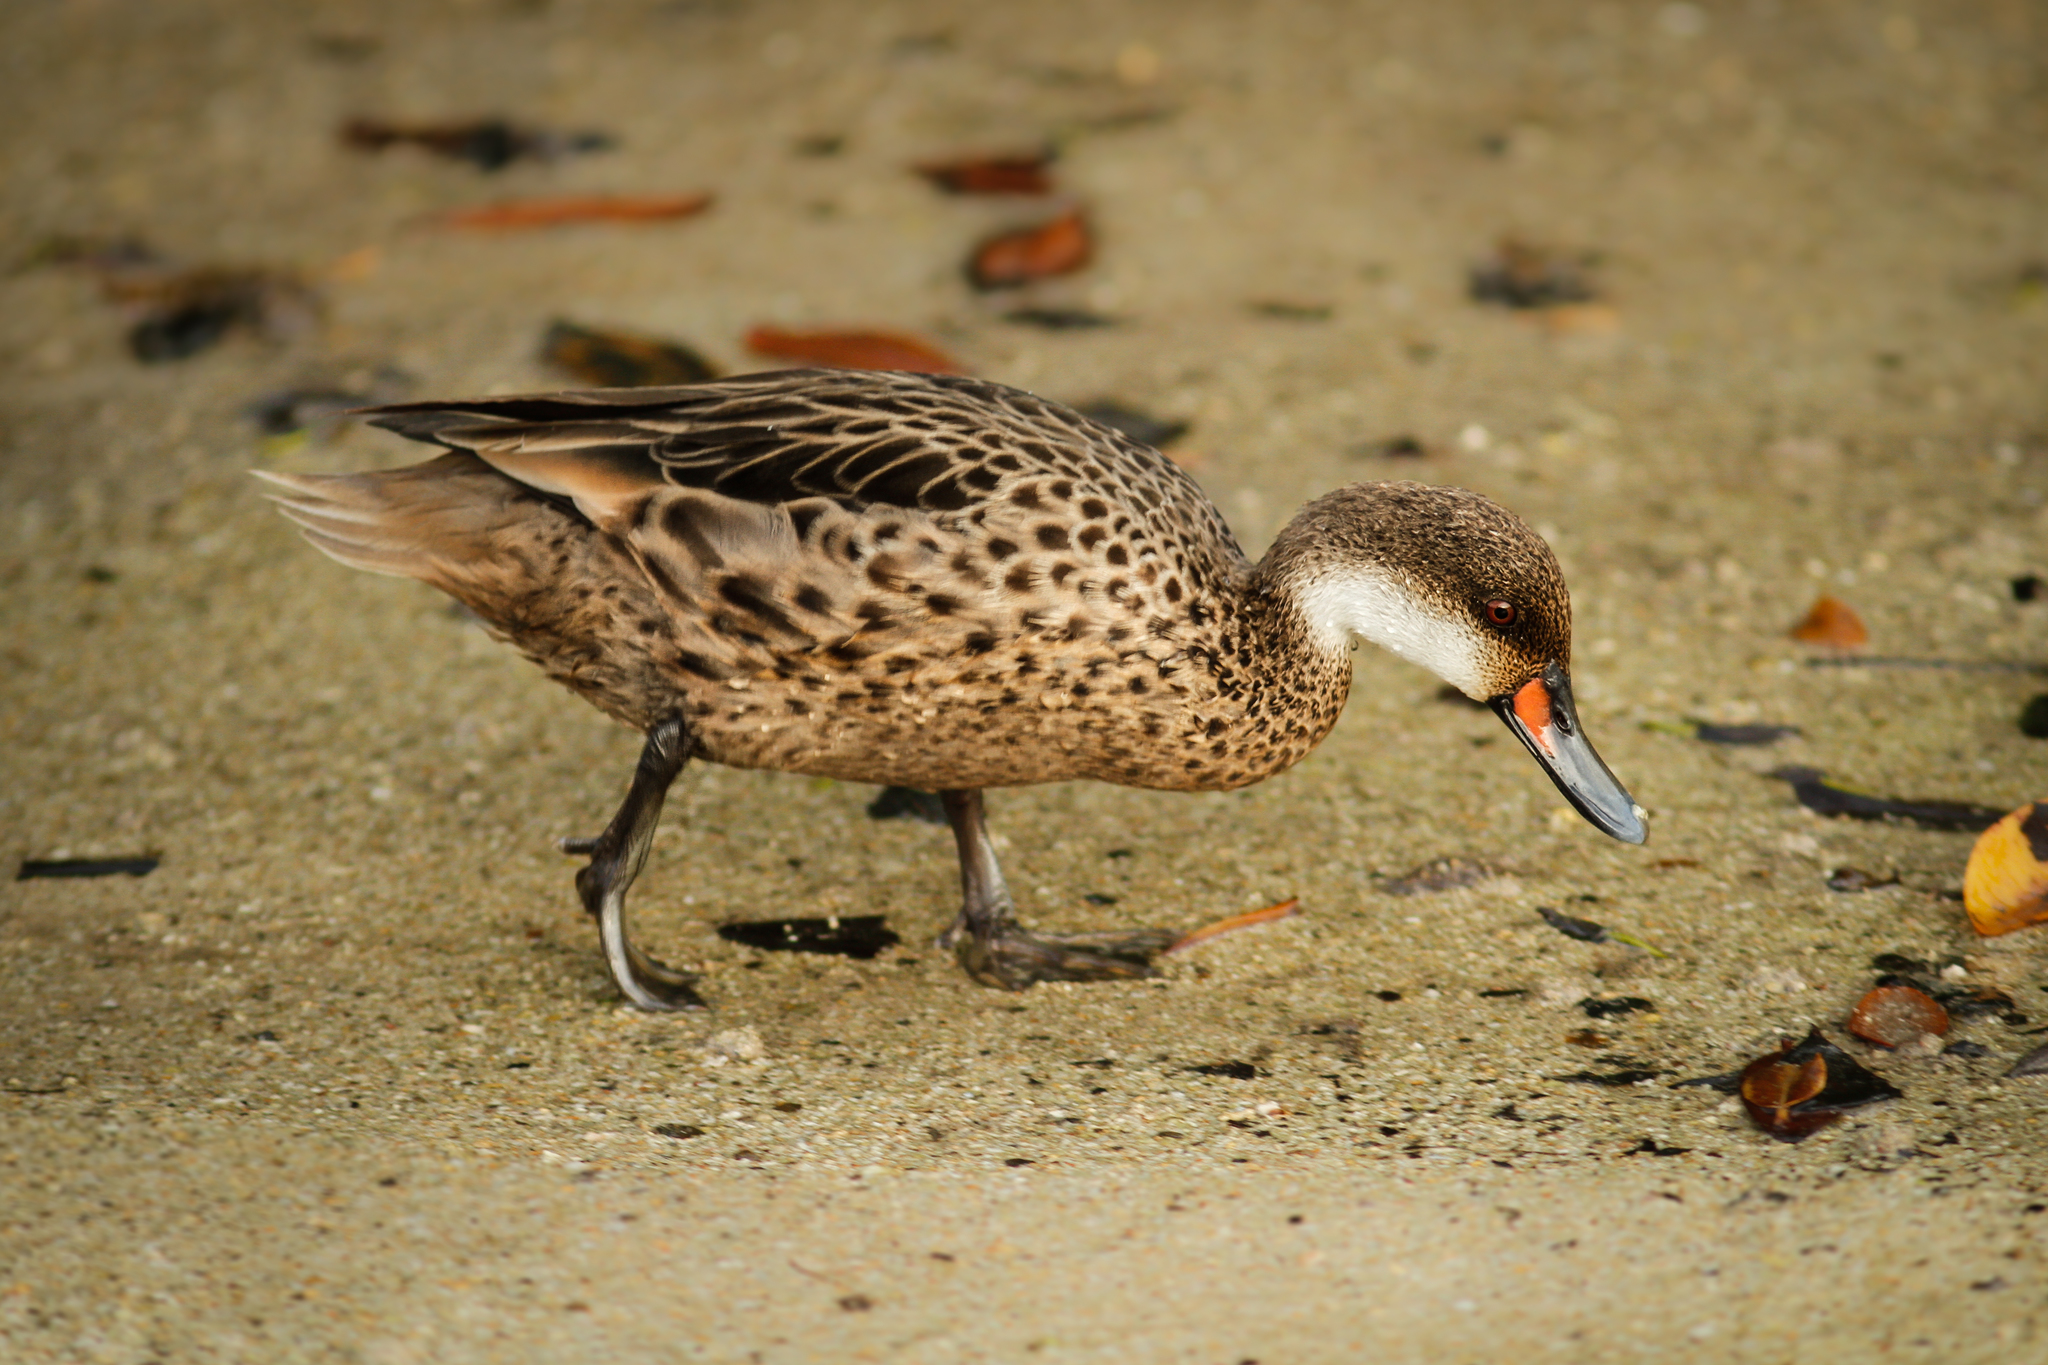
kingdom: Animalia
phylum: Chordata
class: Aves
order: Anseriformes
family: Anatidae
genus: Anas
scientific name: Anas bahamensis
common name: White-cheeked pintail
